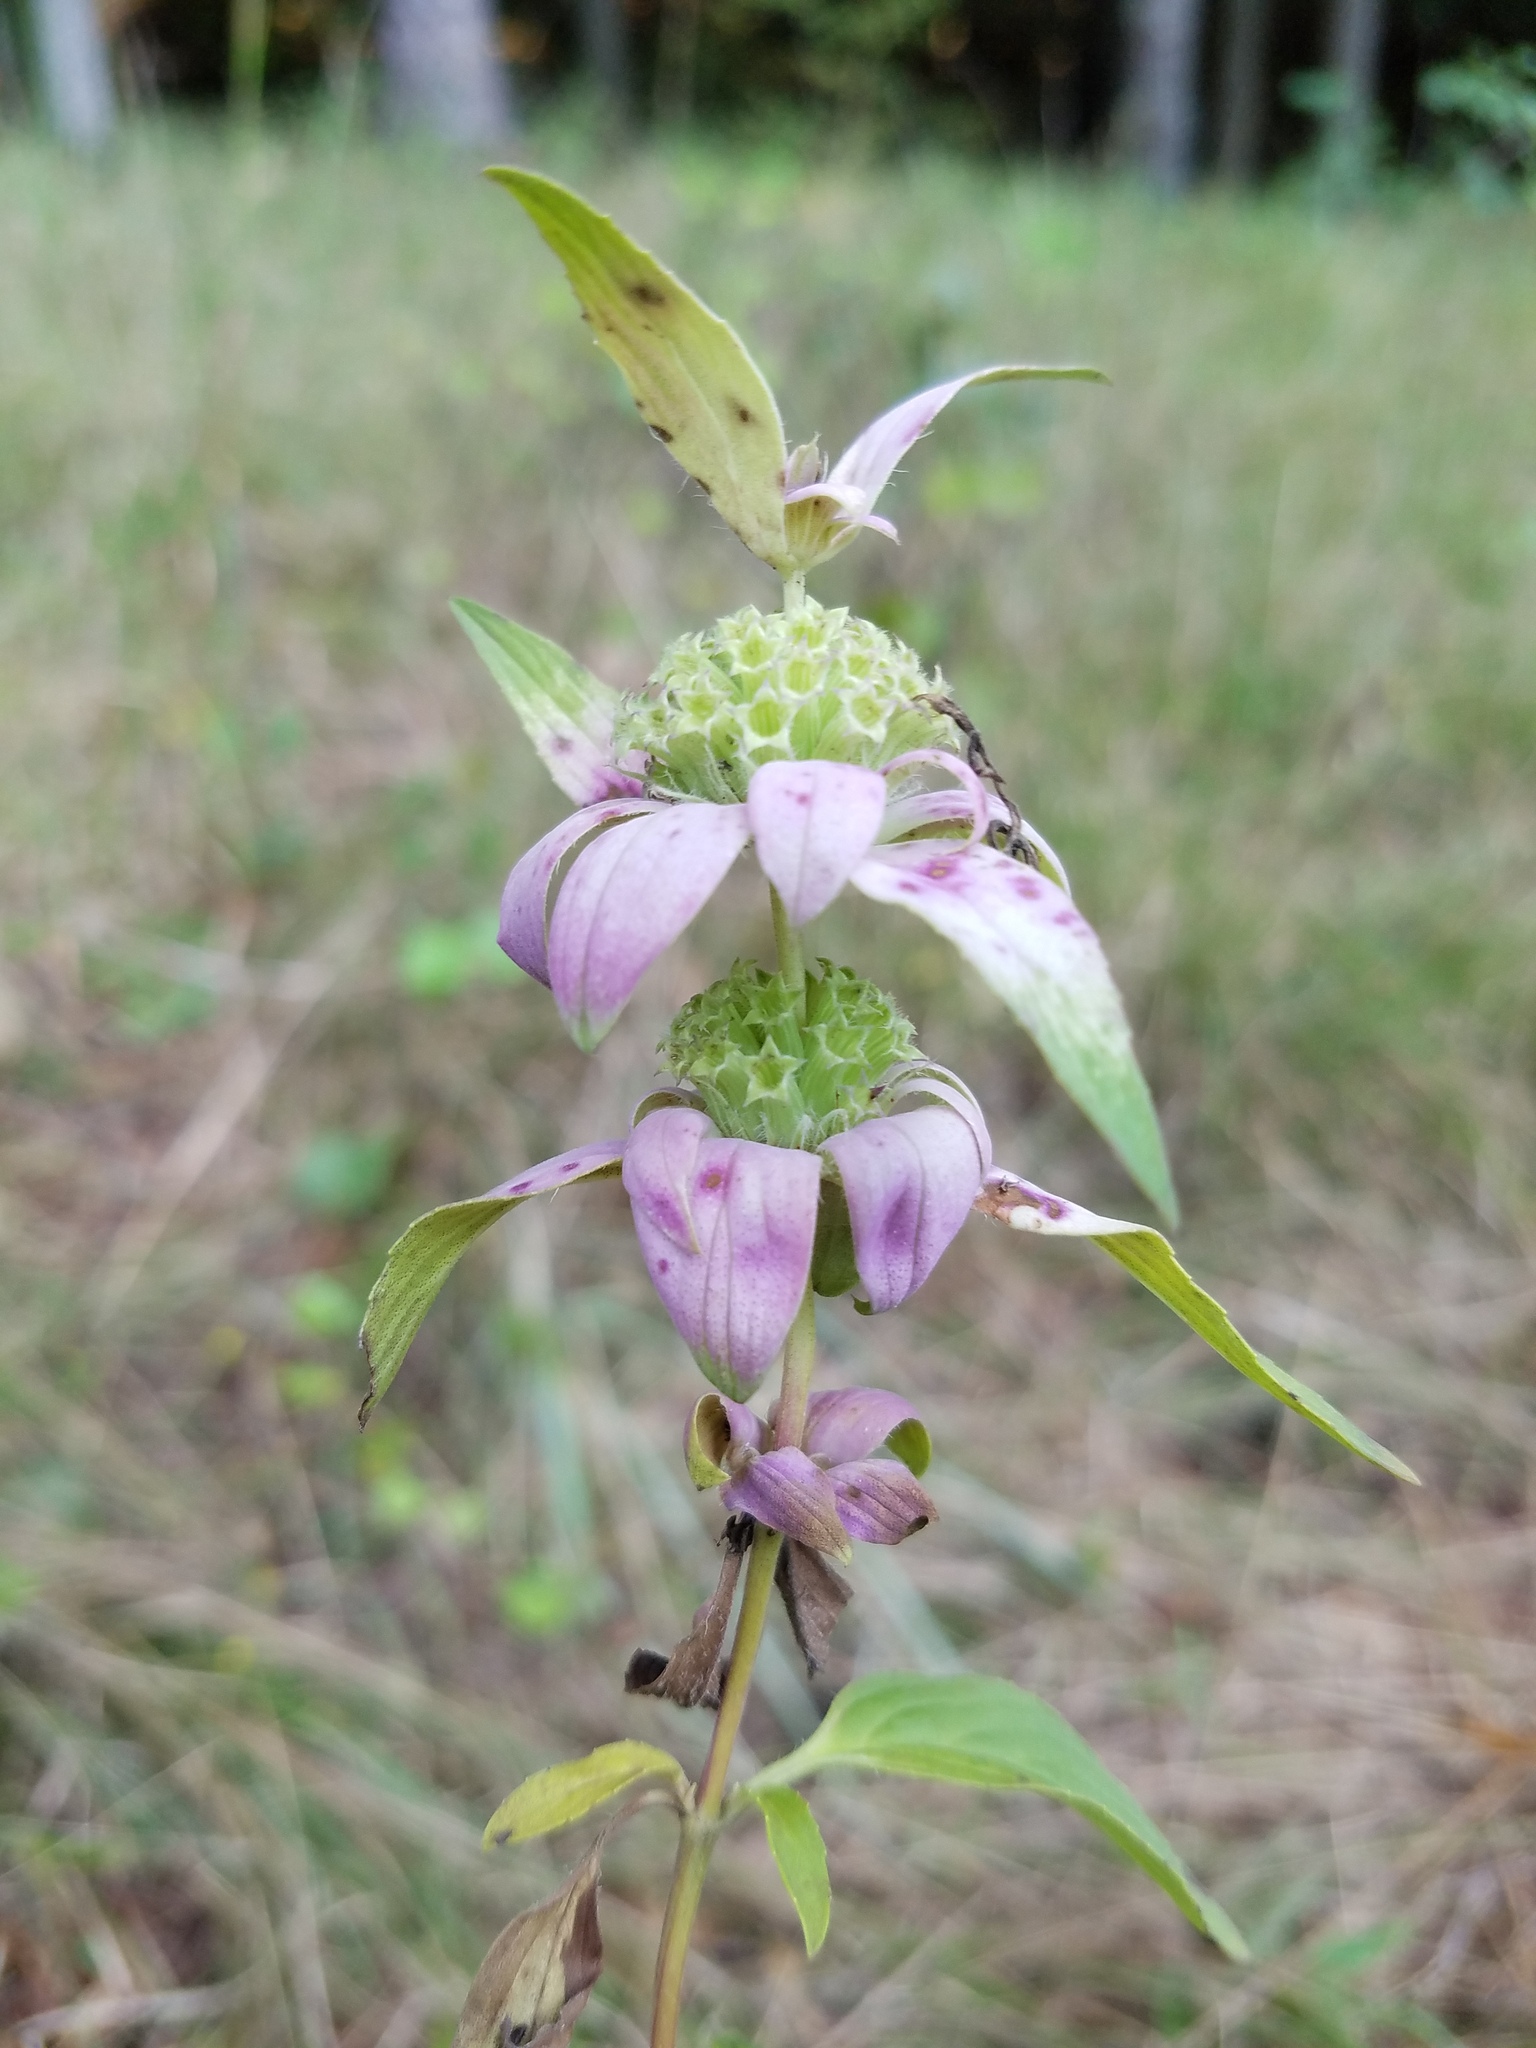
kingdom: Plantae
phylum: Tracheophyta
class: Magnoliopsida
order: Lamiales
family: Lamiaceae
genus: Monarda
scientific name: Monarda punctata
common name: Dotted monarda
